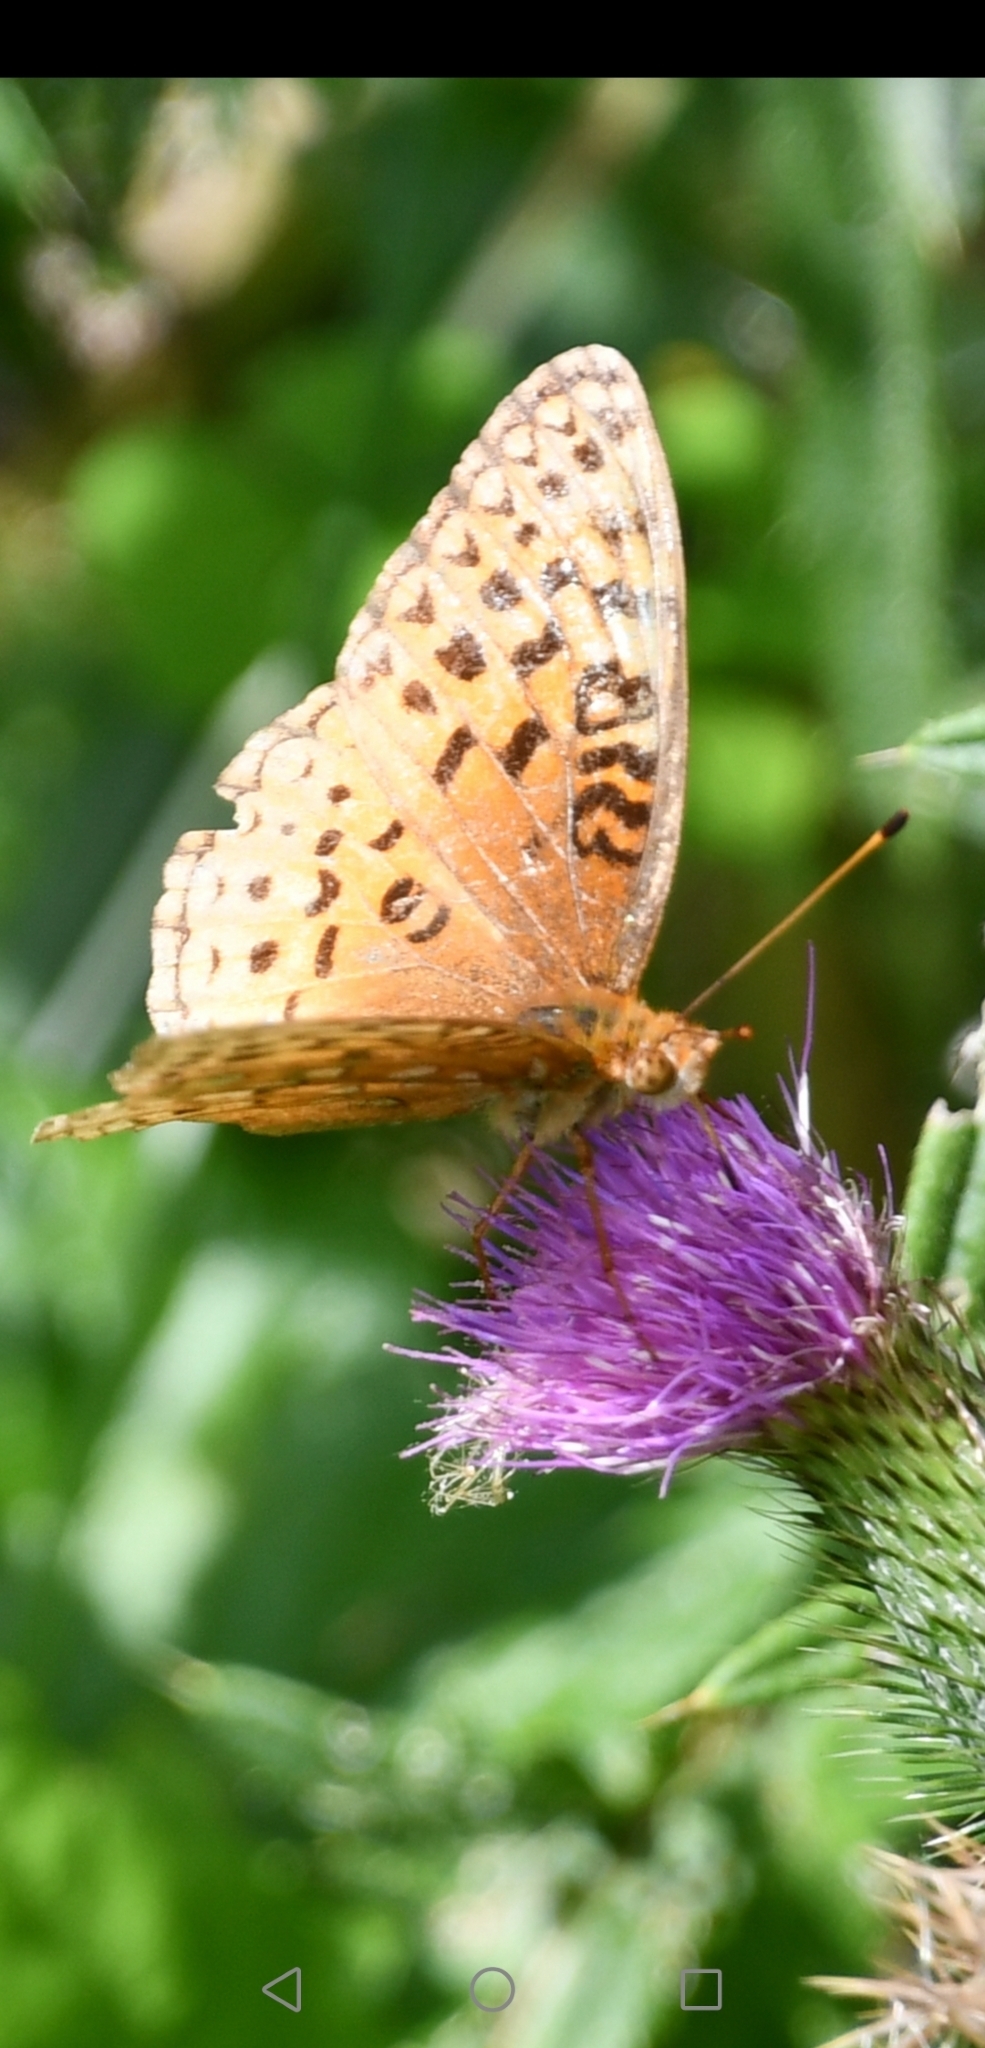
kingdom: Animalia
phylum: Arthropoda
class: Insecta
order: Lepidoptera
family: Nymphalidae
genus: Speyeria
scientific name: Speyeria aphrodite
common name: Aphrodite friitllary
